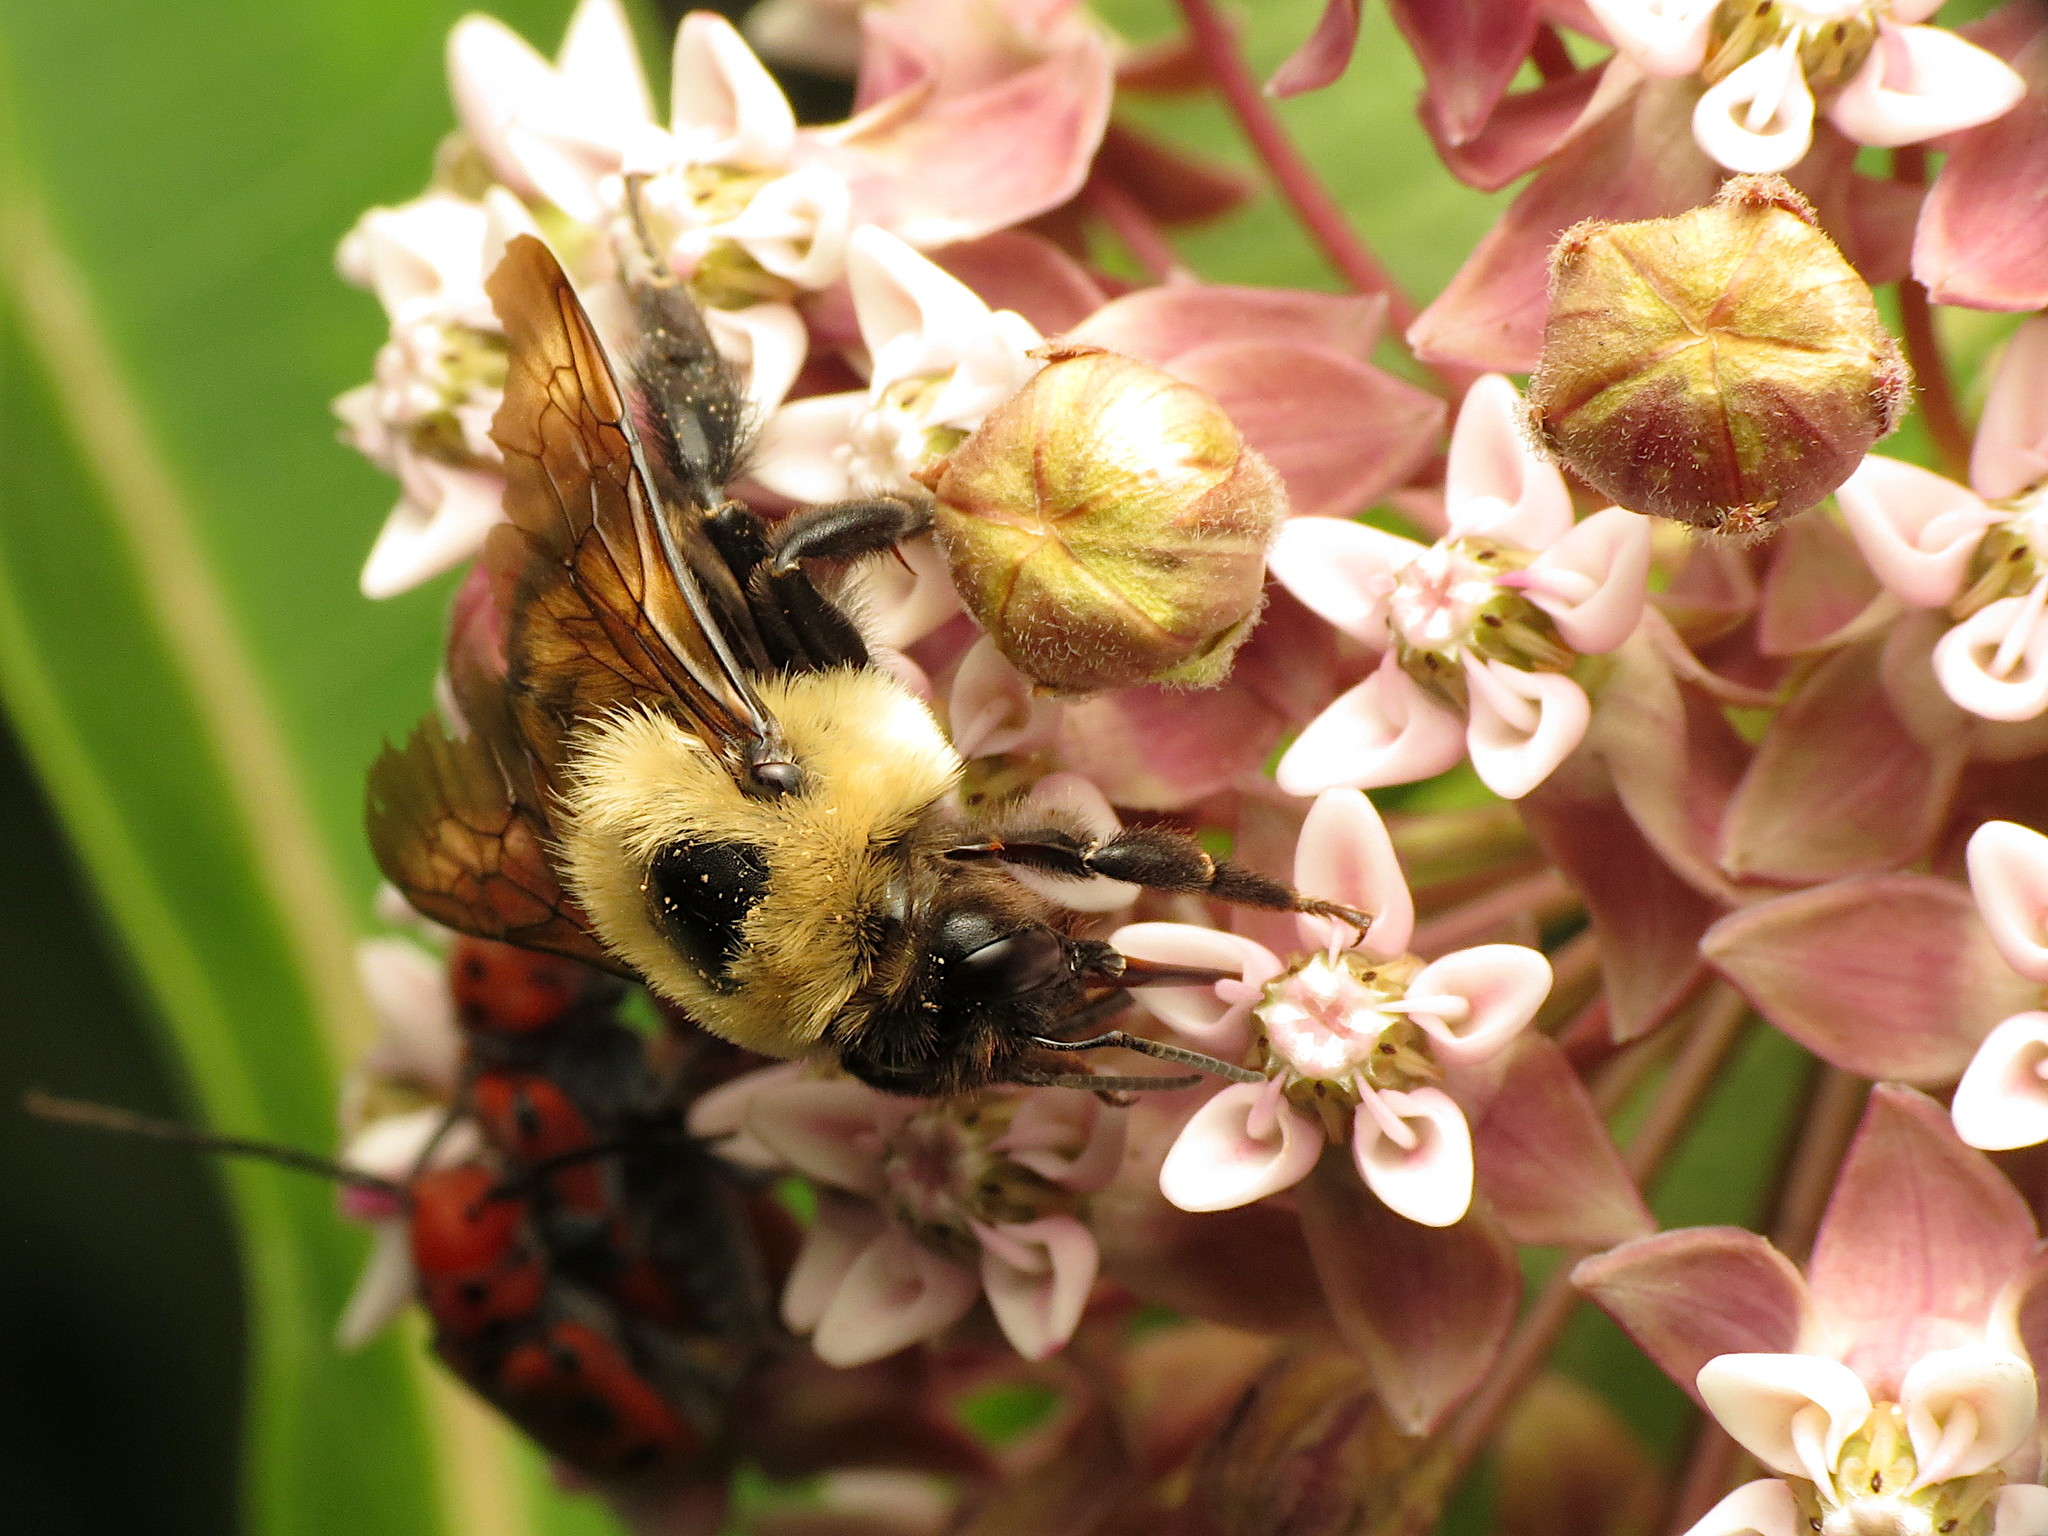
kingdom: Animalia
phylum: Arthropoda
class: Insecta
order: Hymenoptera
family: Apidae
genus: Bombus
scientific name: Bombus griseocollis
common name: Brown-belted bumble bee
